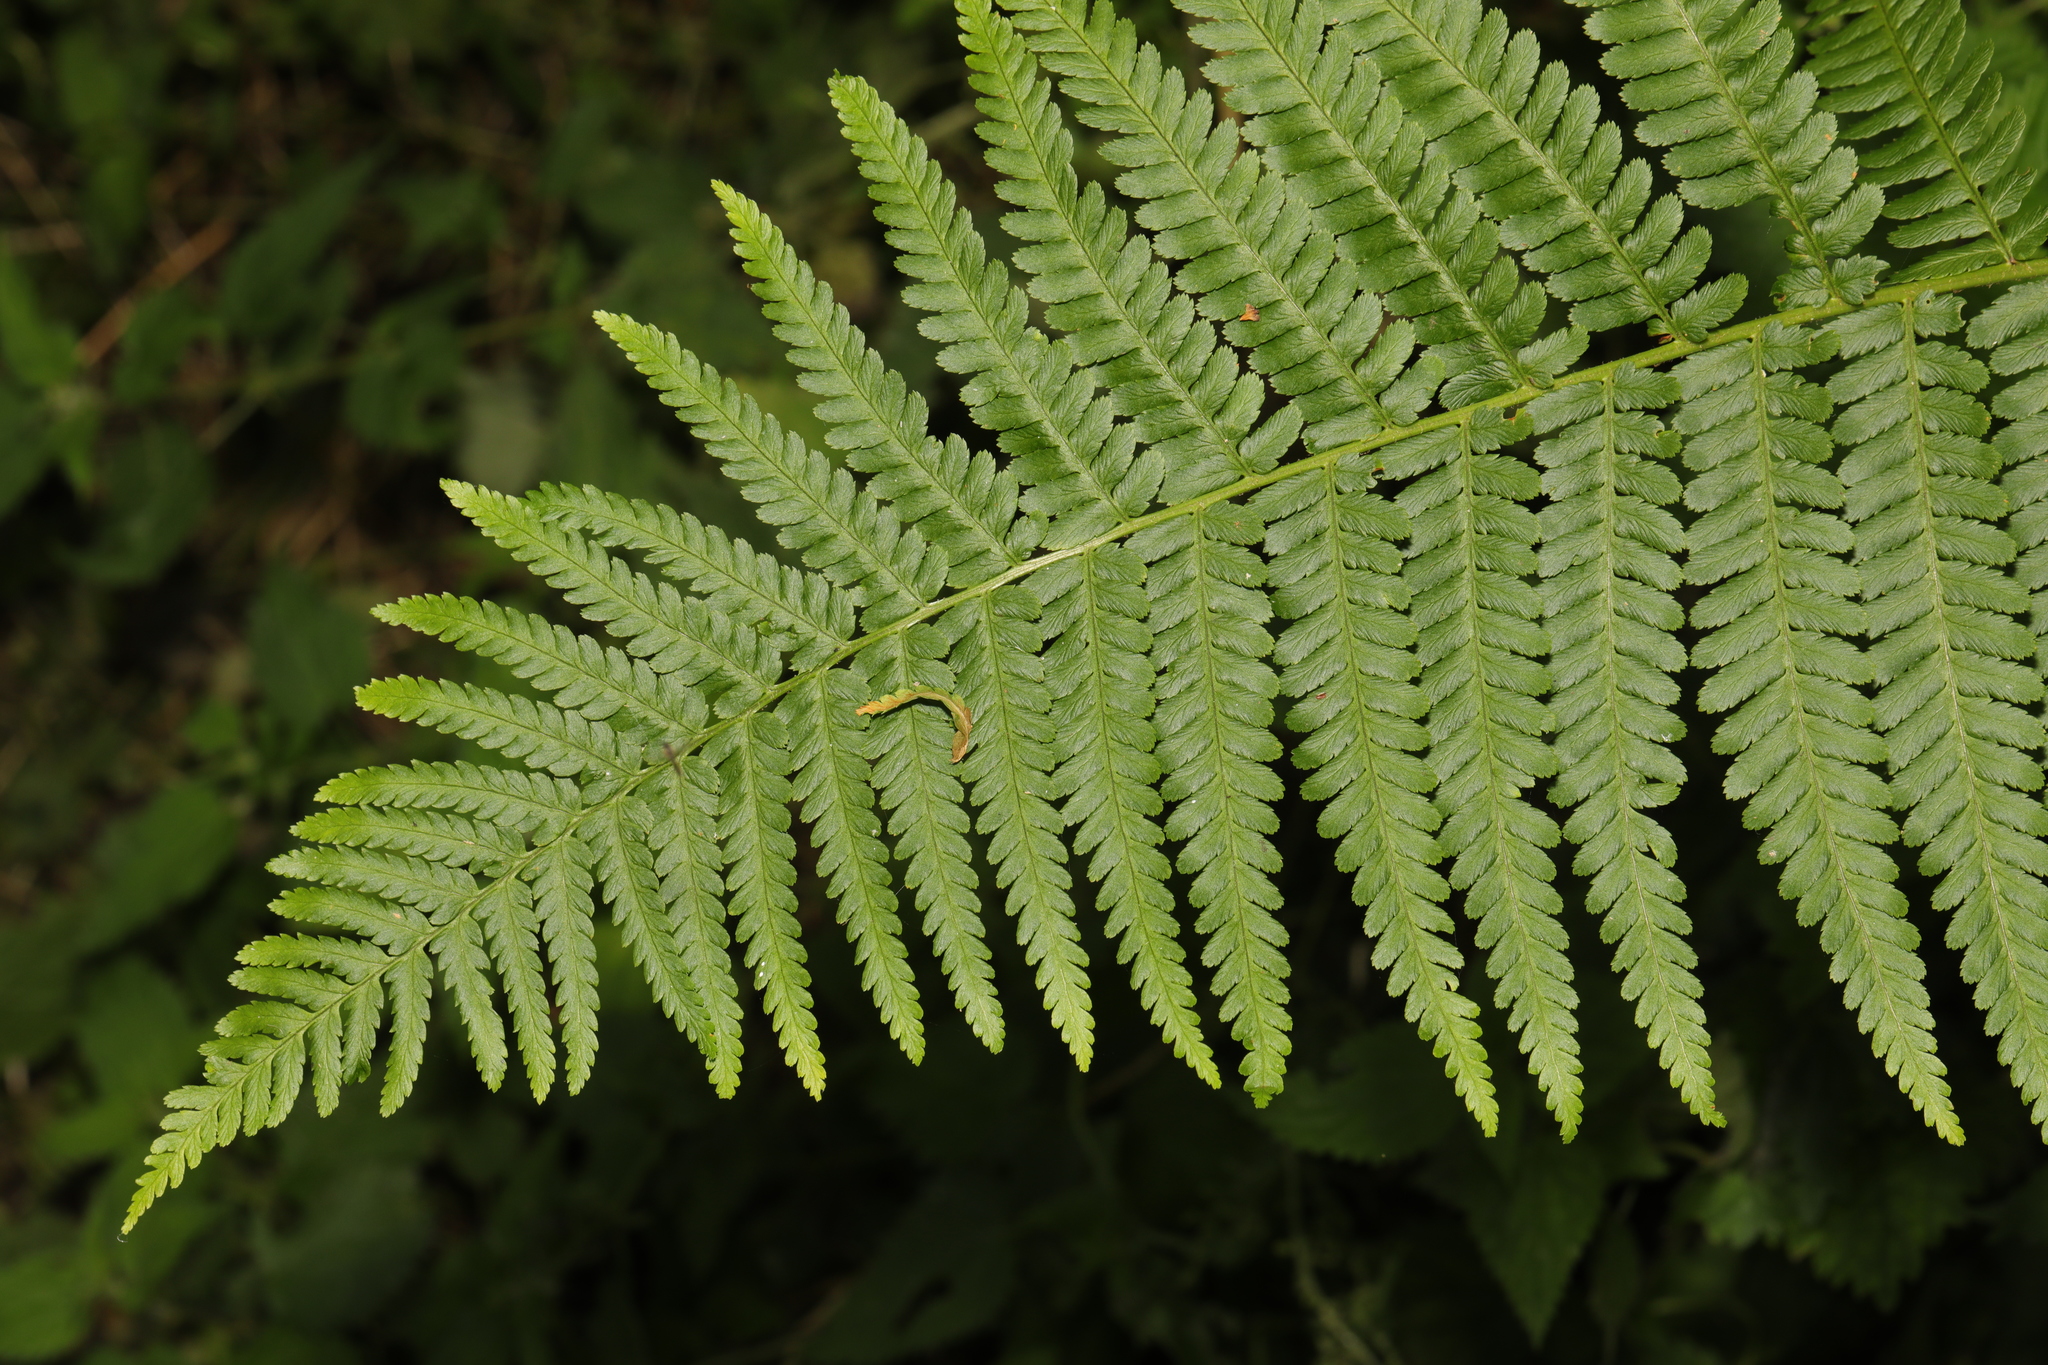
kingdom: Plantae
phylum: Tracheophyta
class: Polypodiopsida
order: Polypodiales
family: Dryopteridaceae
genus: Dryopteris
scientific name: Dryopteris filix-mas
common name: Male fern
